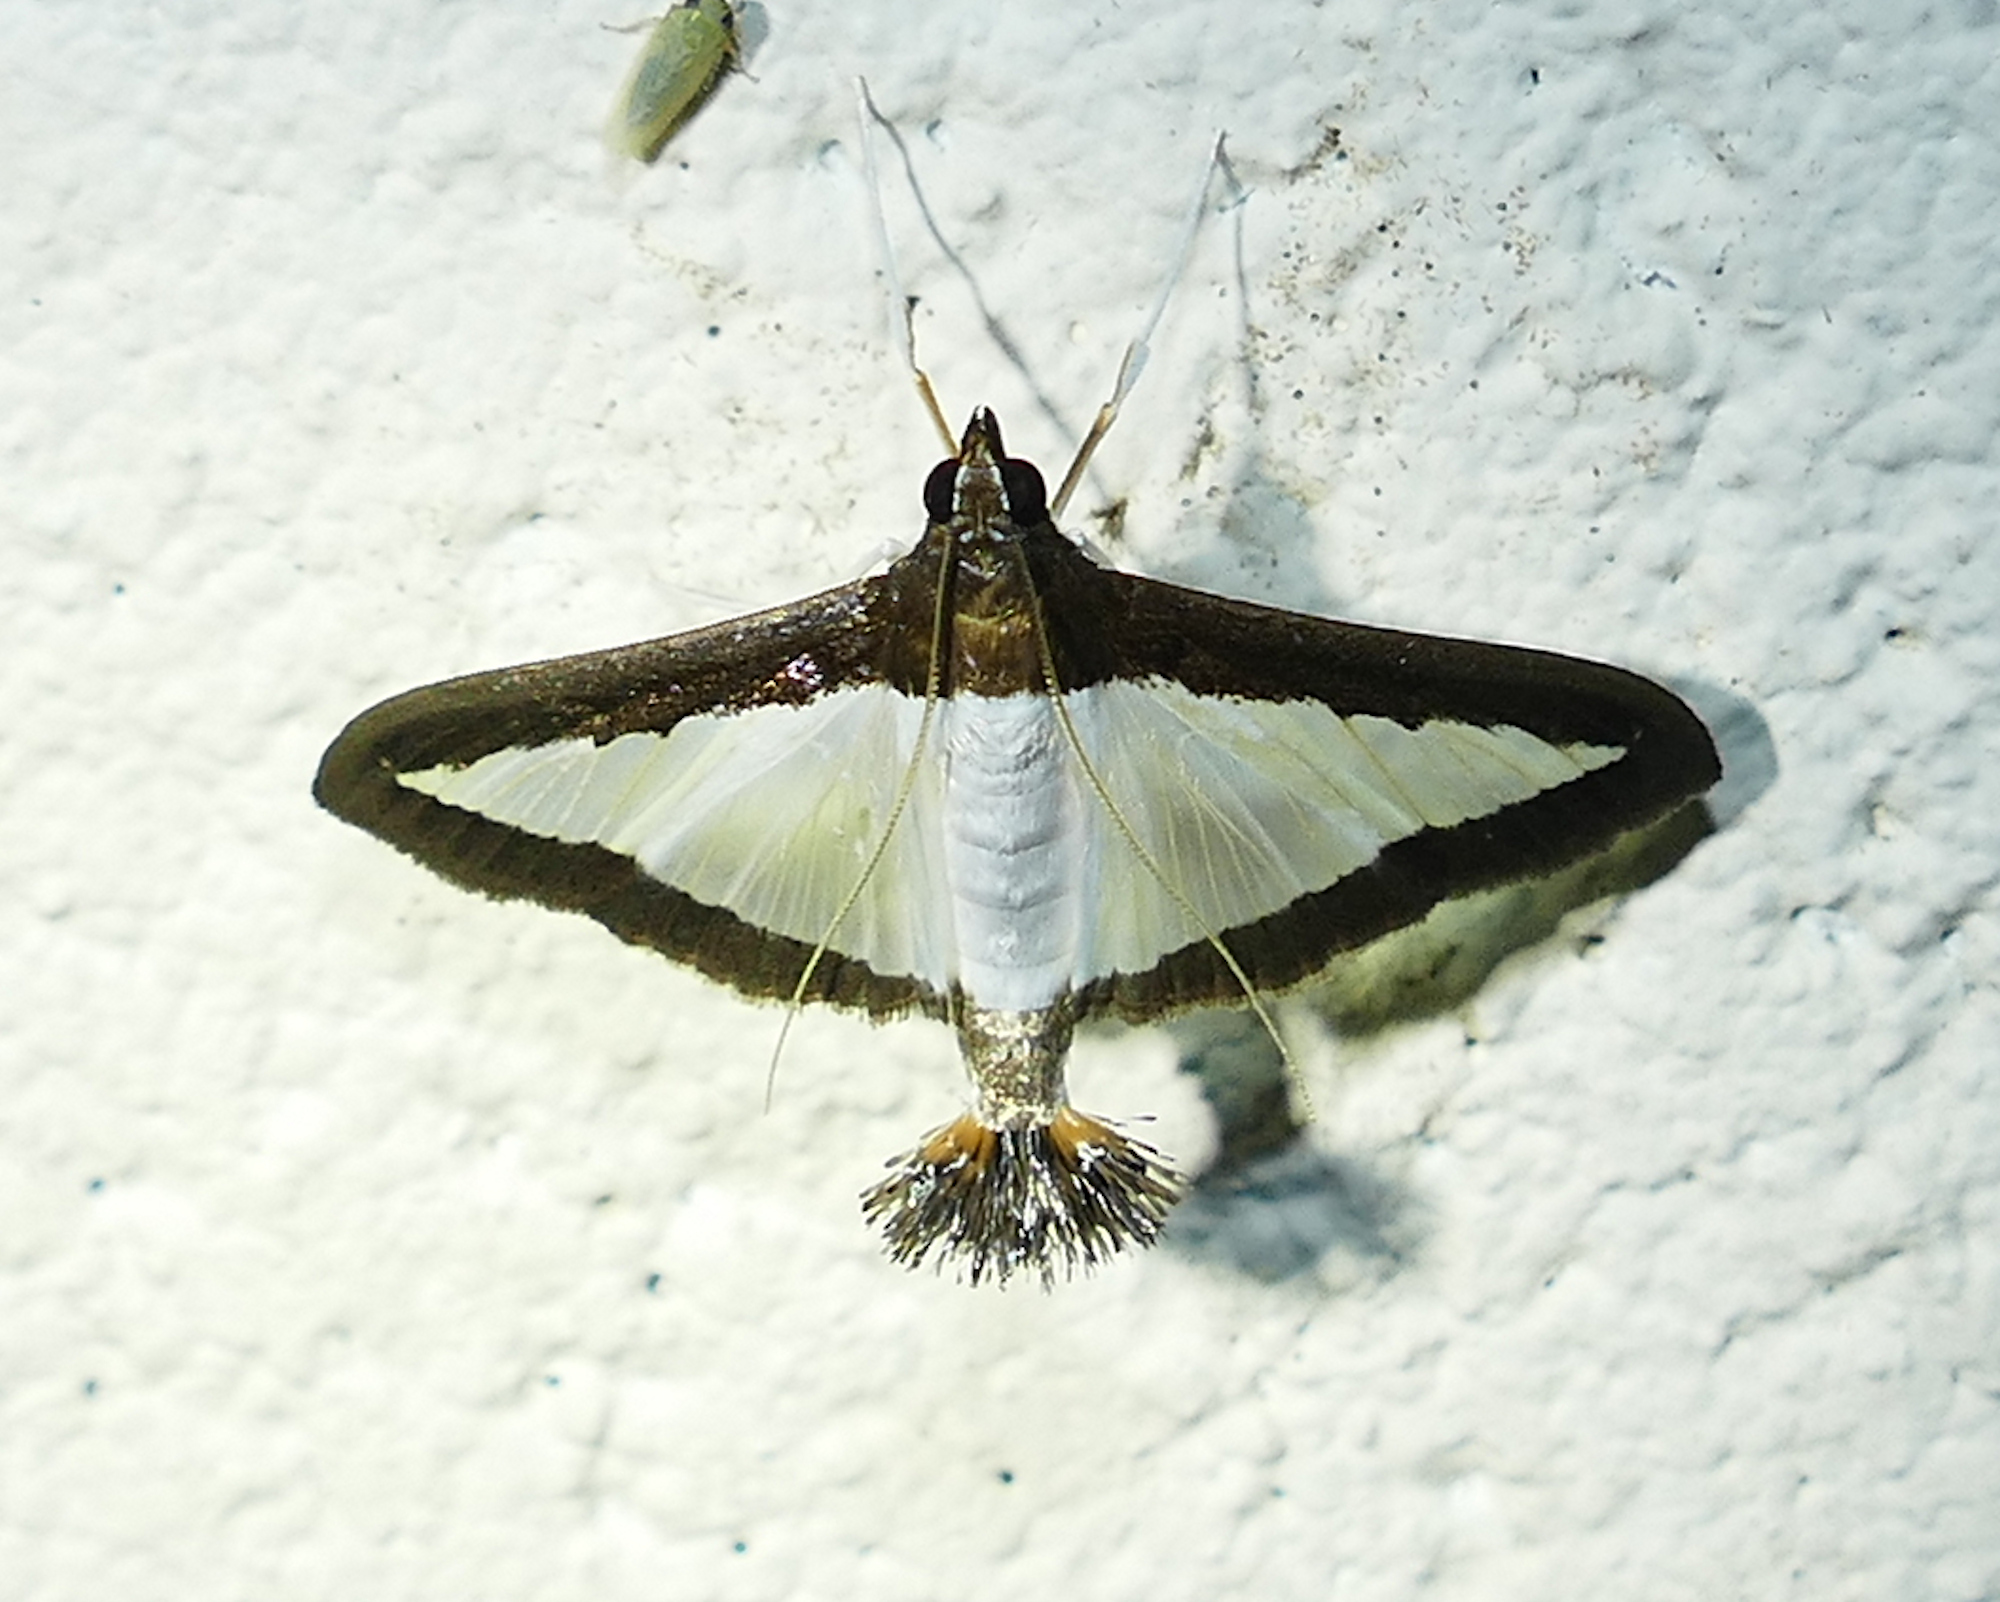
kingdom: Animalia
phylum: Arthropoda
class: Insecta
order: Lepidoptera
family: Crambidae
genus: Diaphania
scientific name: Diaphania hyalinata
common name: Melonworm
